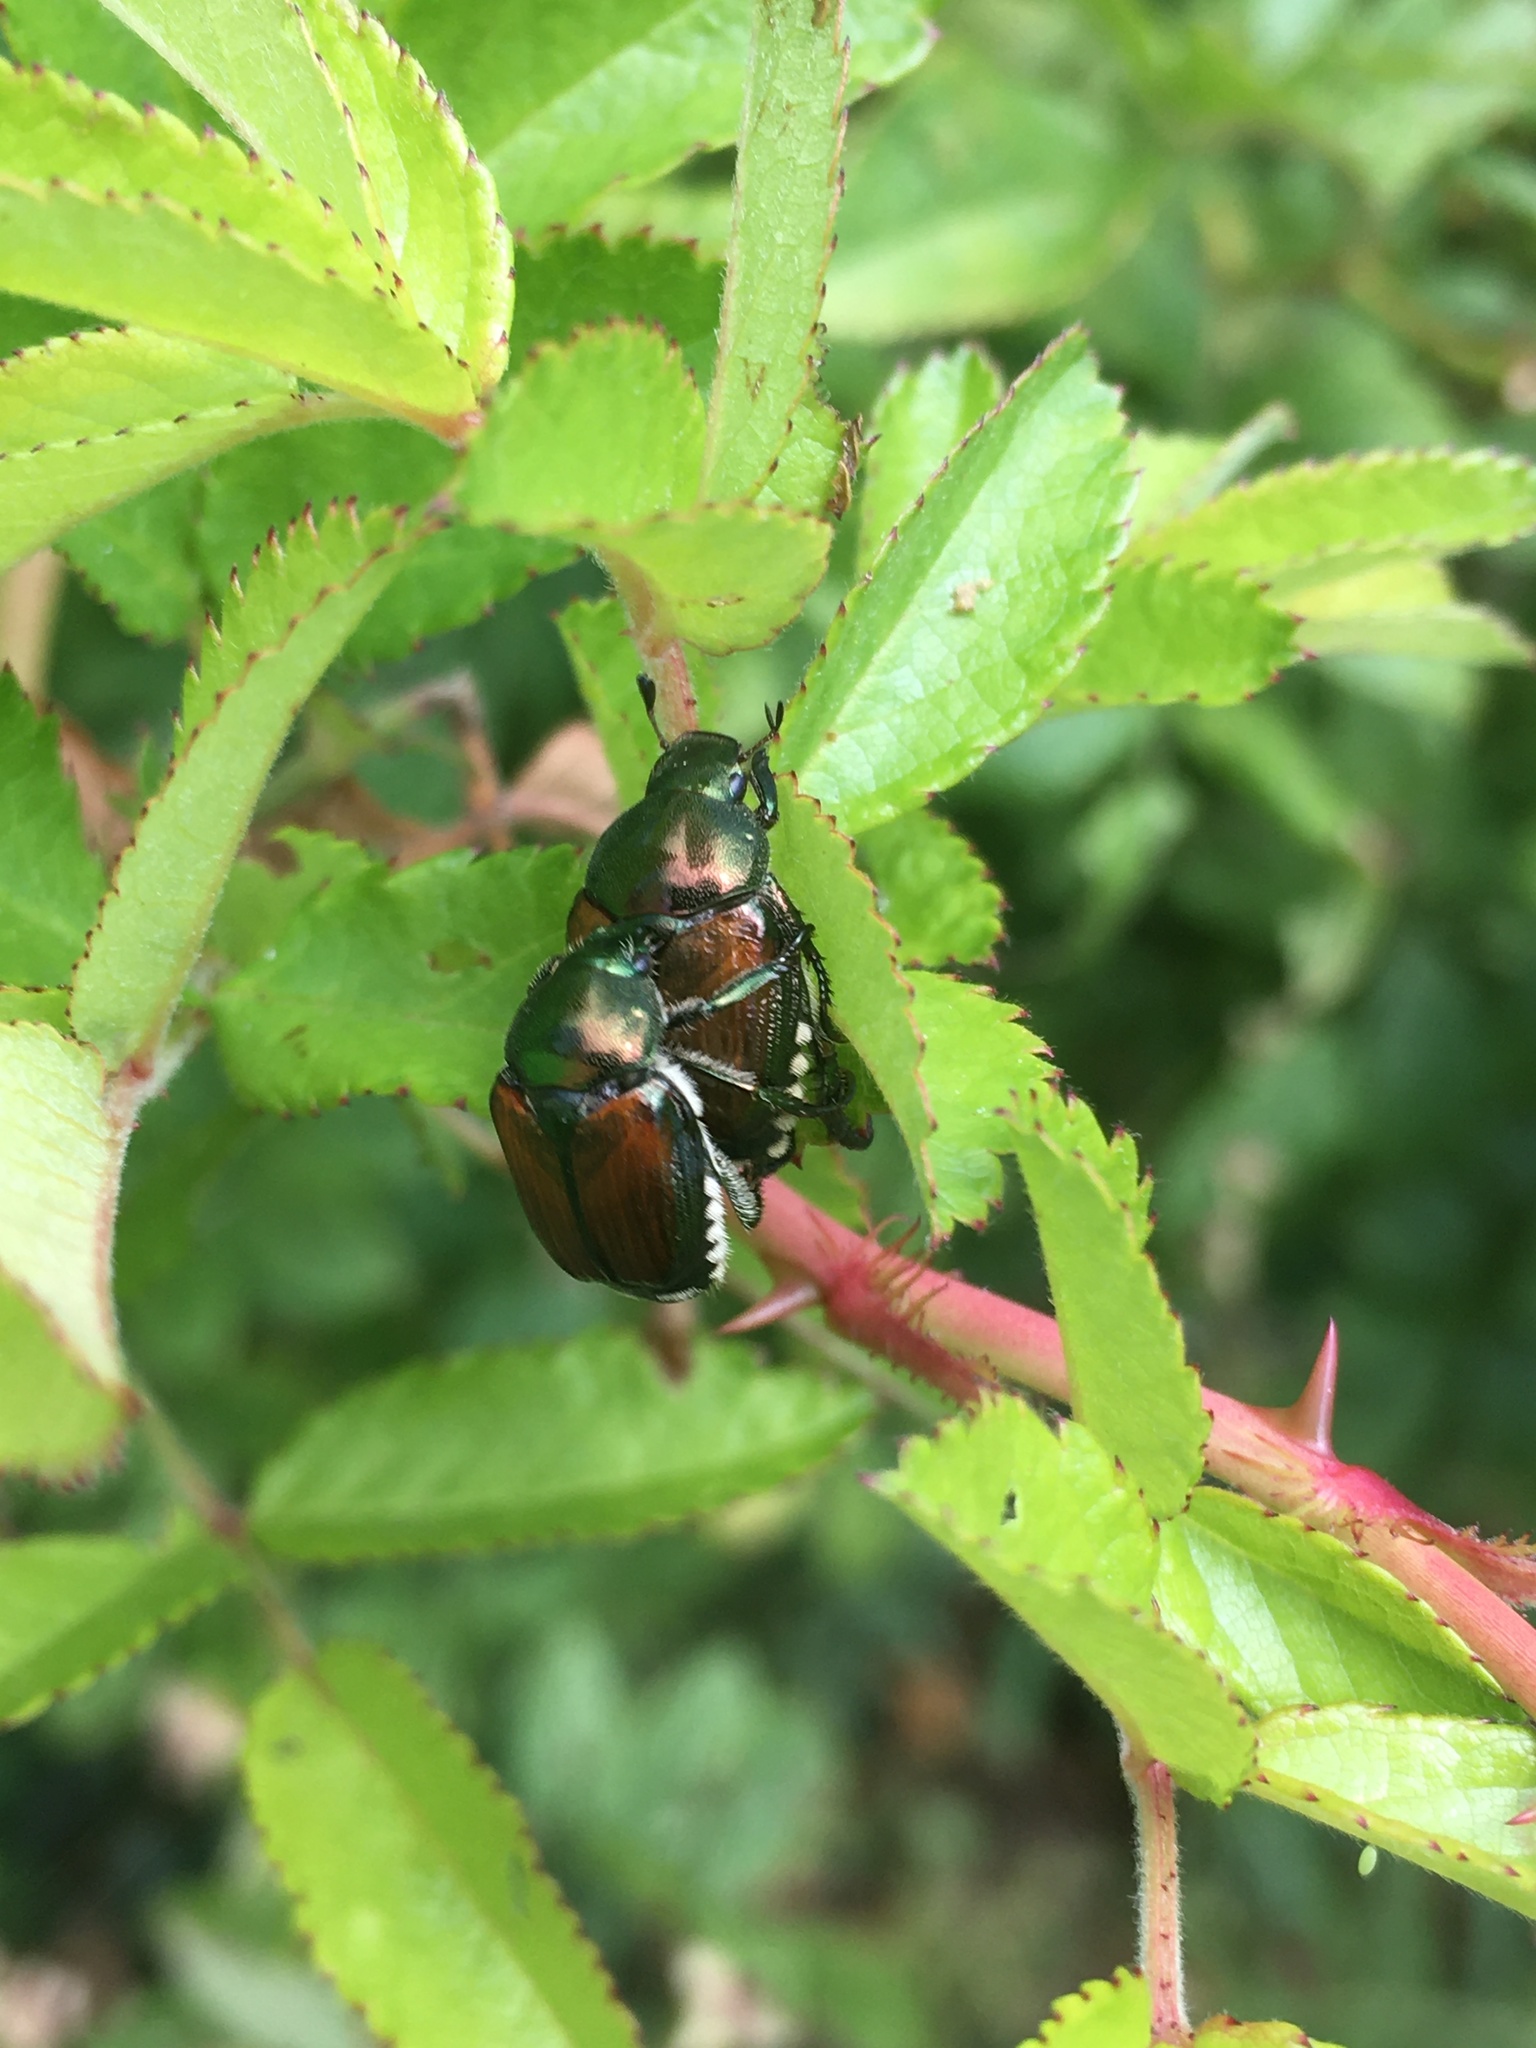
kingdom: Animalia
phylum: Arthropoda
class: Insecta
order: Coleoptera
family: Scarabaeidae
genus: Popillia
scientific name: Popillia japonica
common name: Japanese beetle
